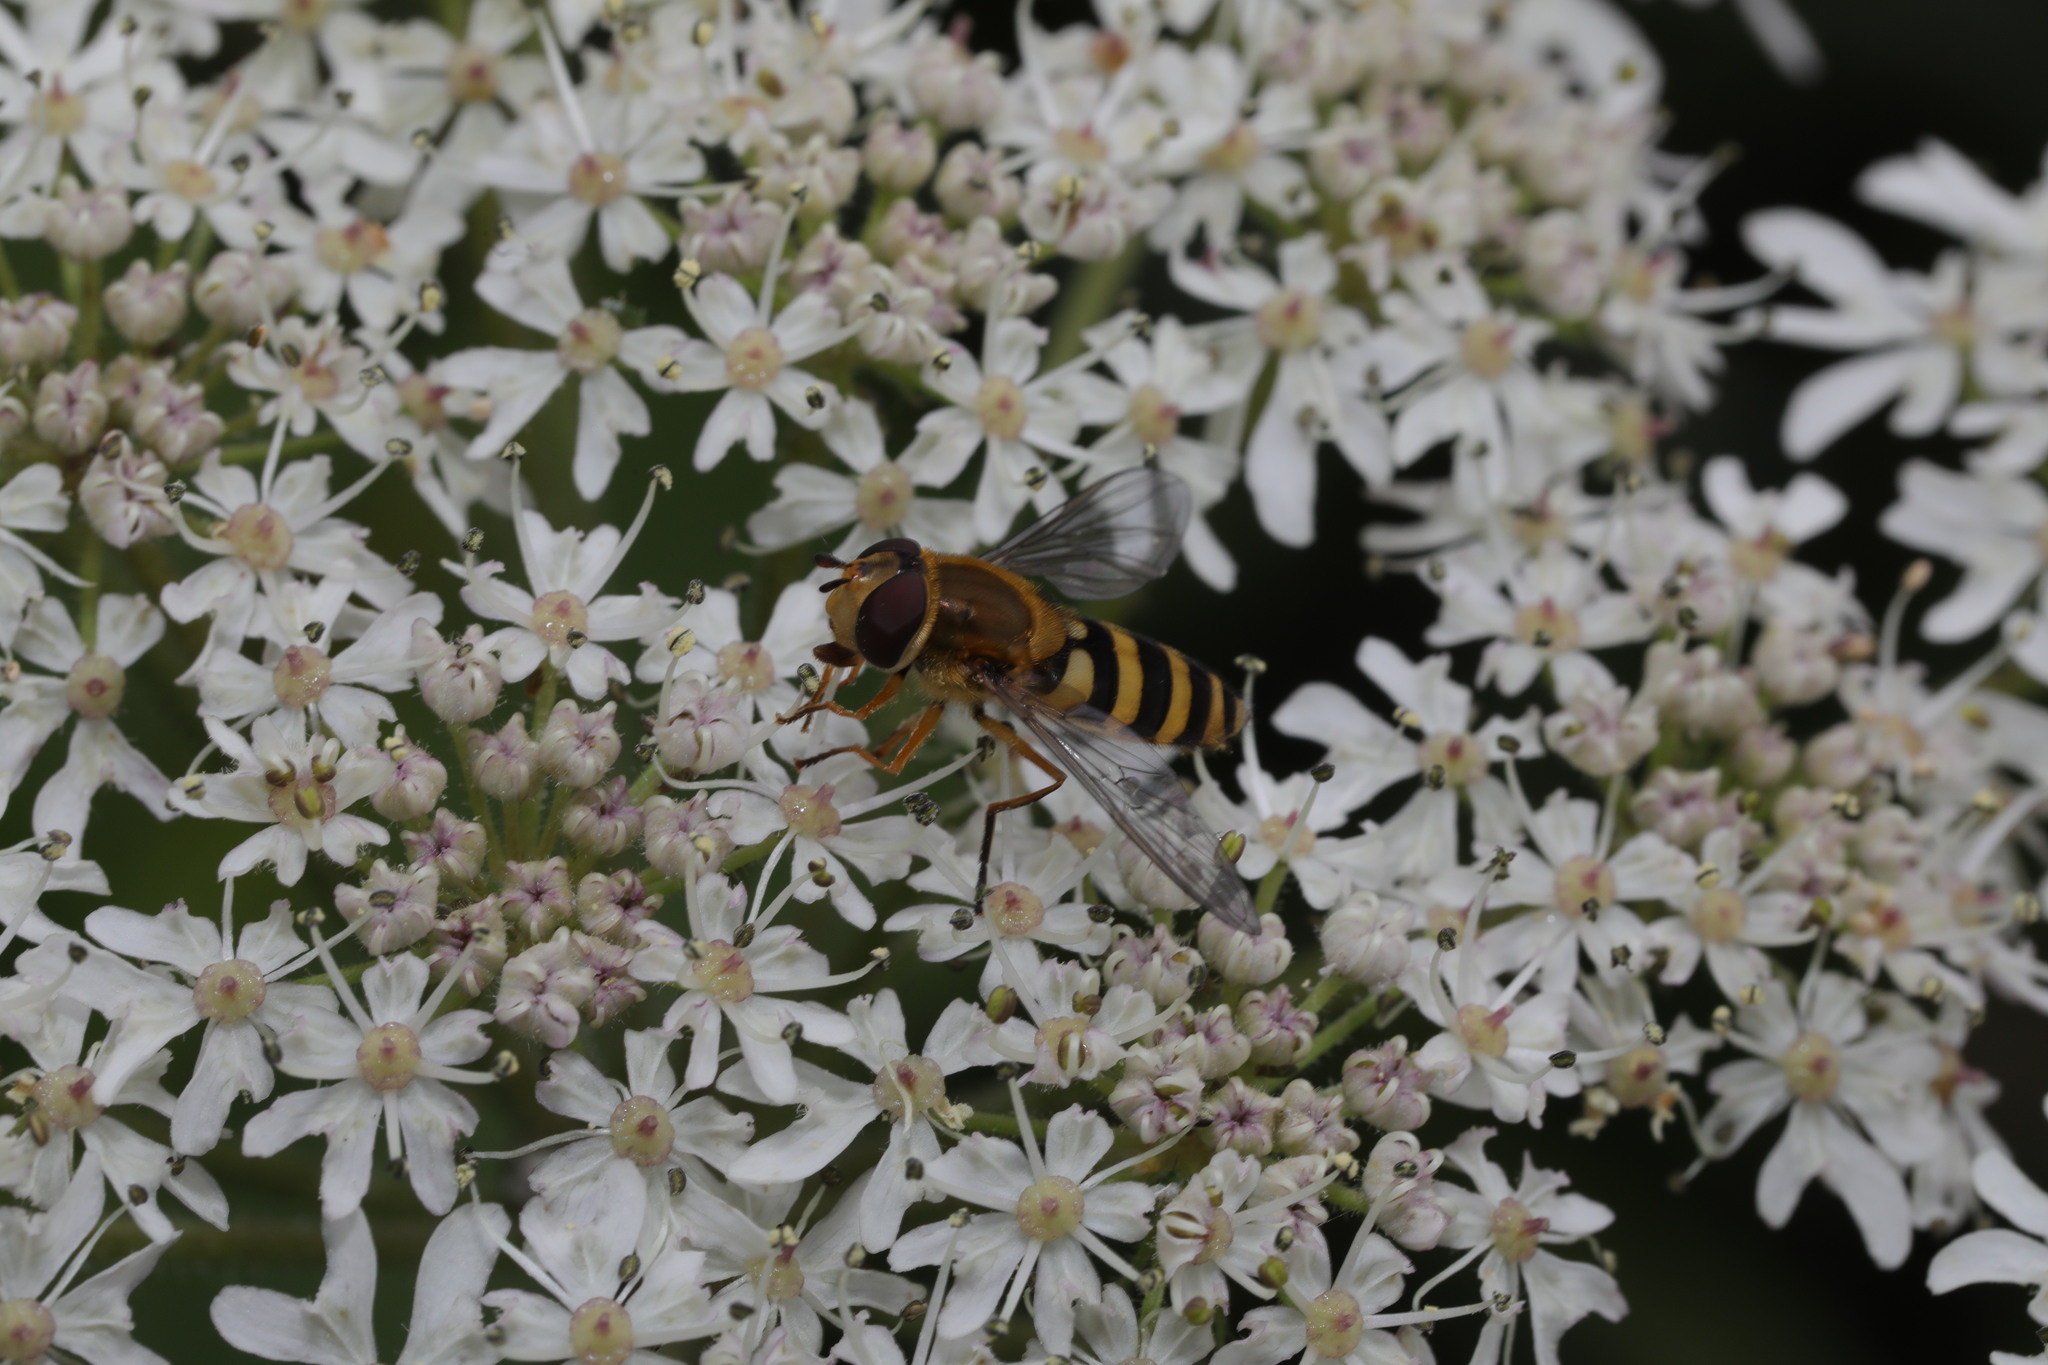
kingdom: Animalia
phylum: Arthropoda
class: Insecta
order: Diptera
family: Syrphidae
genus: Syrphus
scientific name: Syrphus ribesii
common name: Common flower fly
